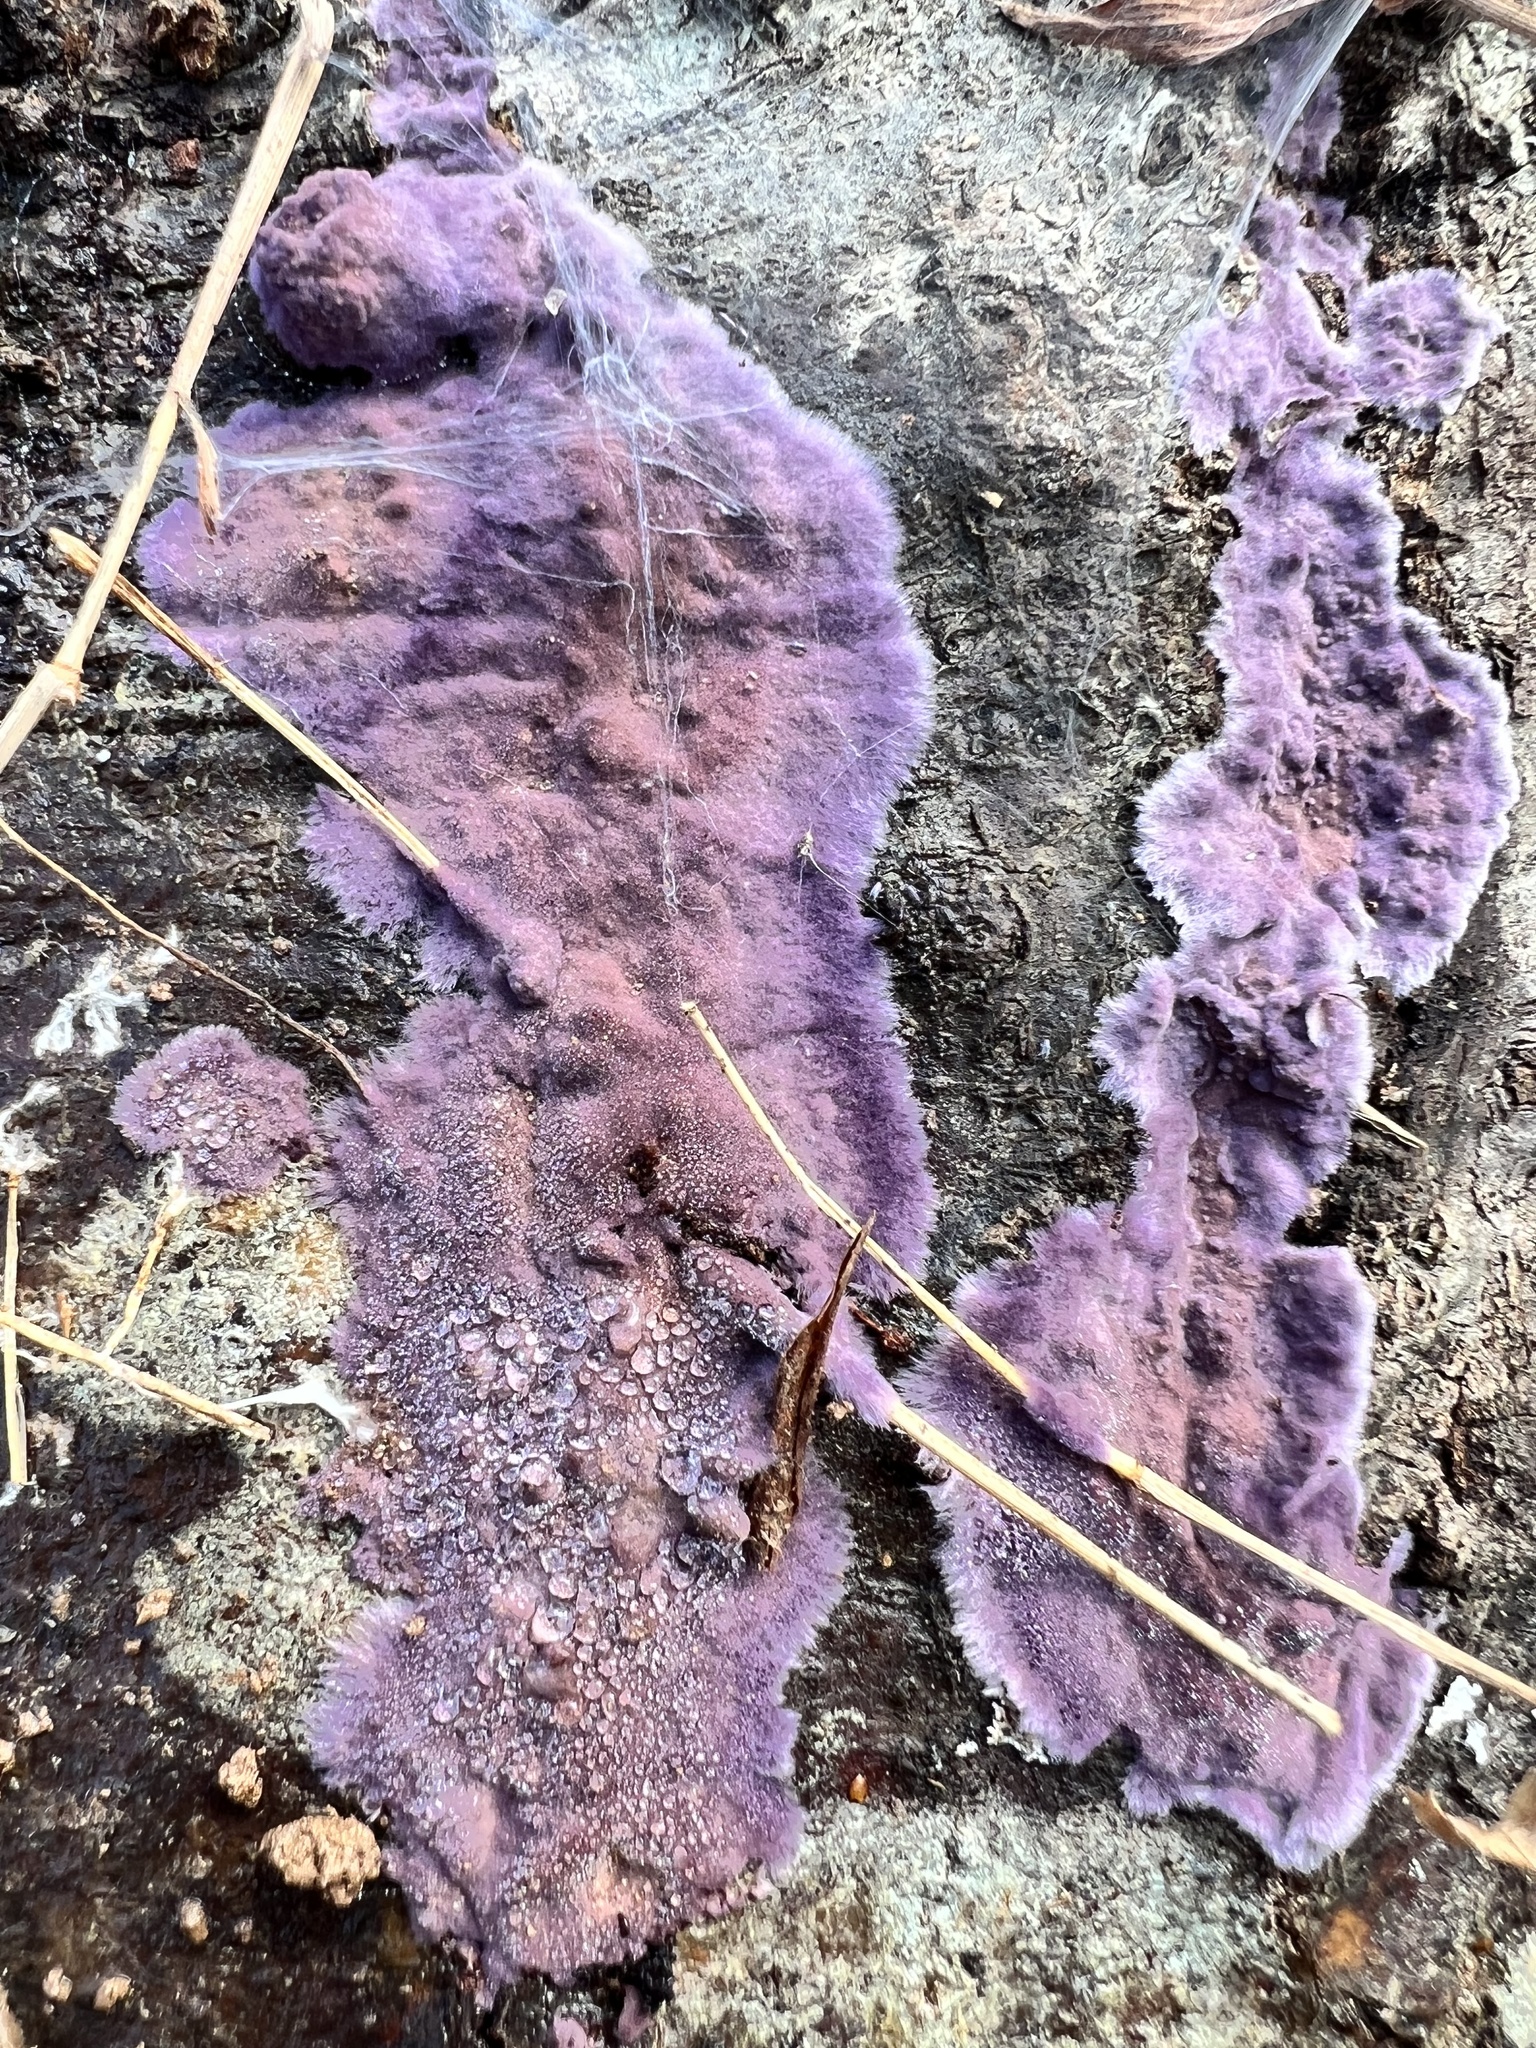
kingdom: Fungi
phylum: Basidiomycota
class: Agaricomycetes
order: Polyporales
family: Phanerochaetaceae
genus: Phlebiopsis
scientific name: Phlebiopsis crassa
